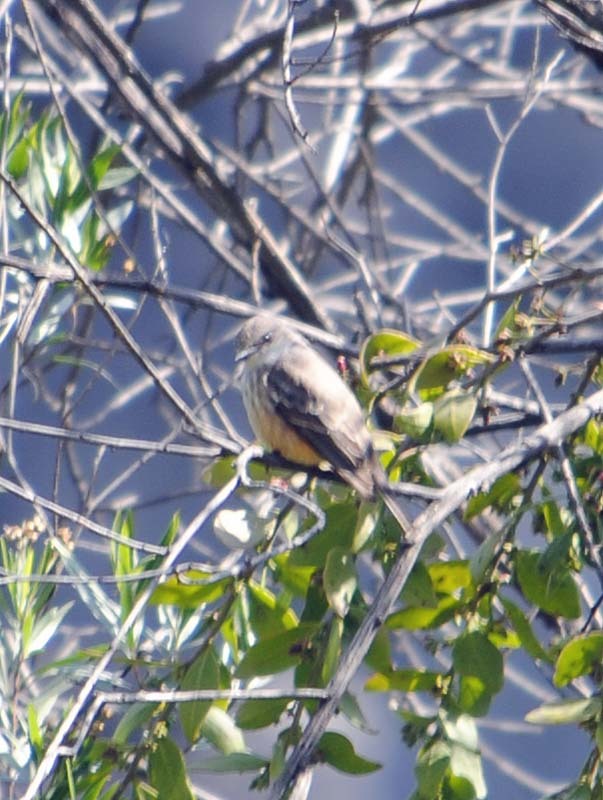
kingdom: Animalia
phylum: Chordata
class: Aves
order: Passeriformes
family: Tyrannidae
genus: Pyrocephalus
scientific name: Pyrocephalus rubinus
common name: Vermilion flycatcher
